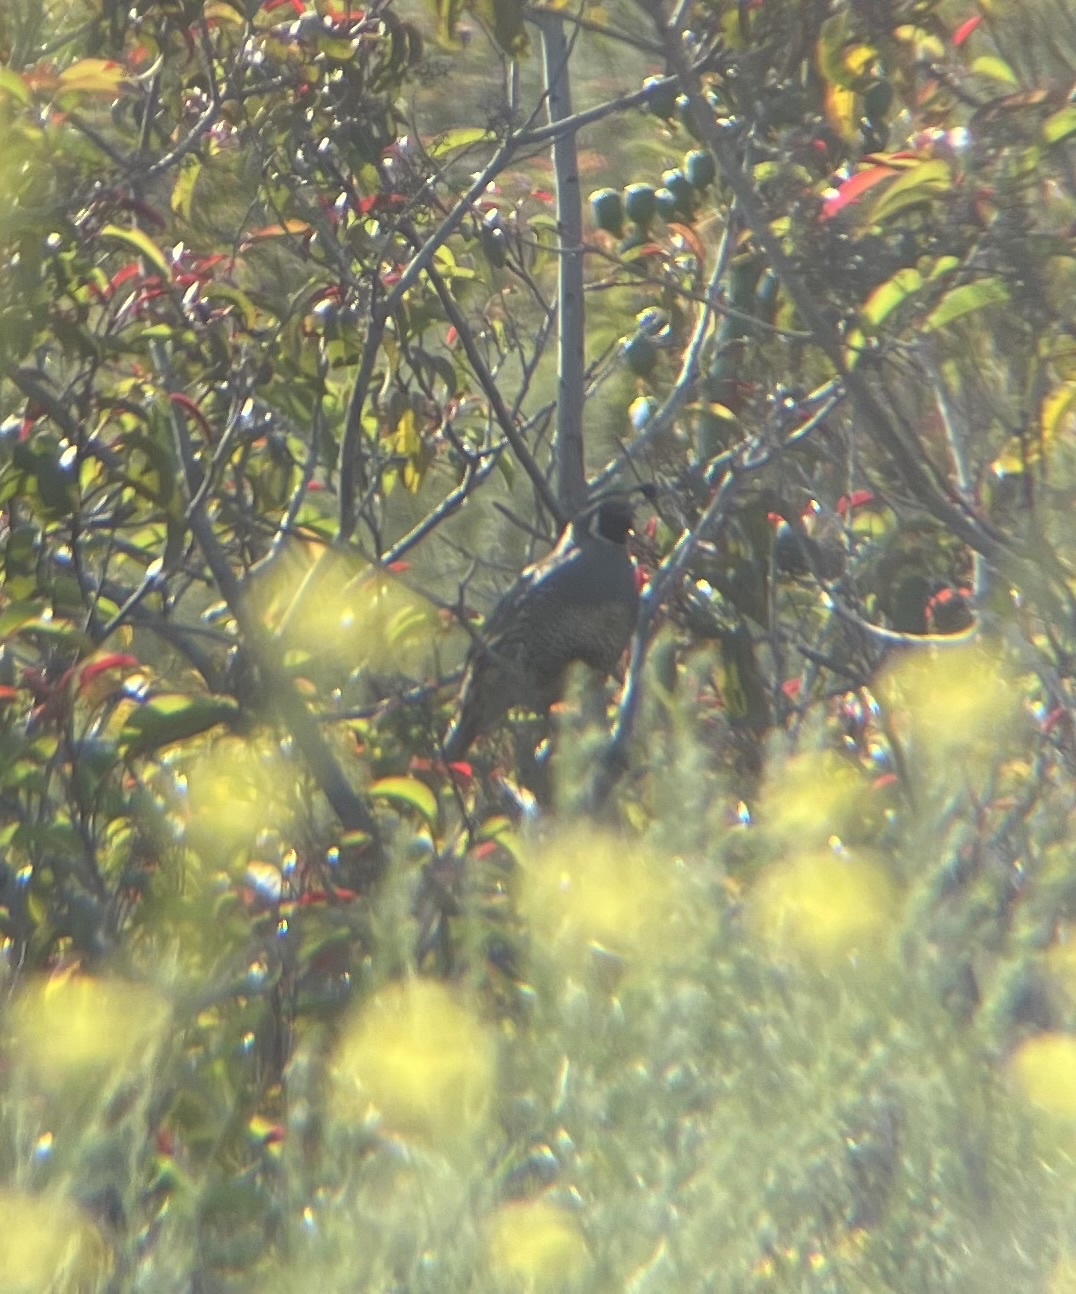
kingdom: Animalia
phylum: Chordata
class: Aves
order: Galliformes
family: Odontophoridae
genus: Callipepla
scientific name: Callipepla californica
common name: California quail
